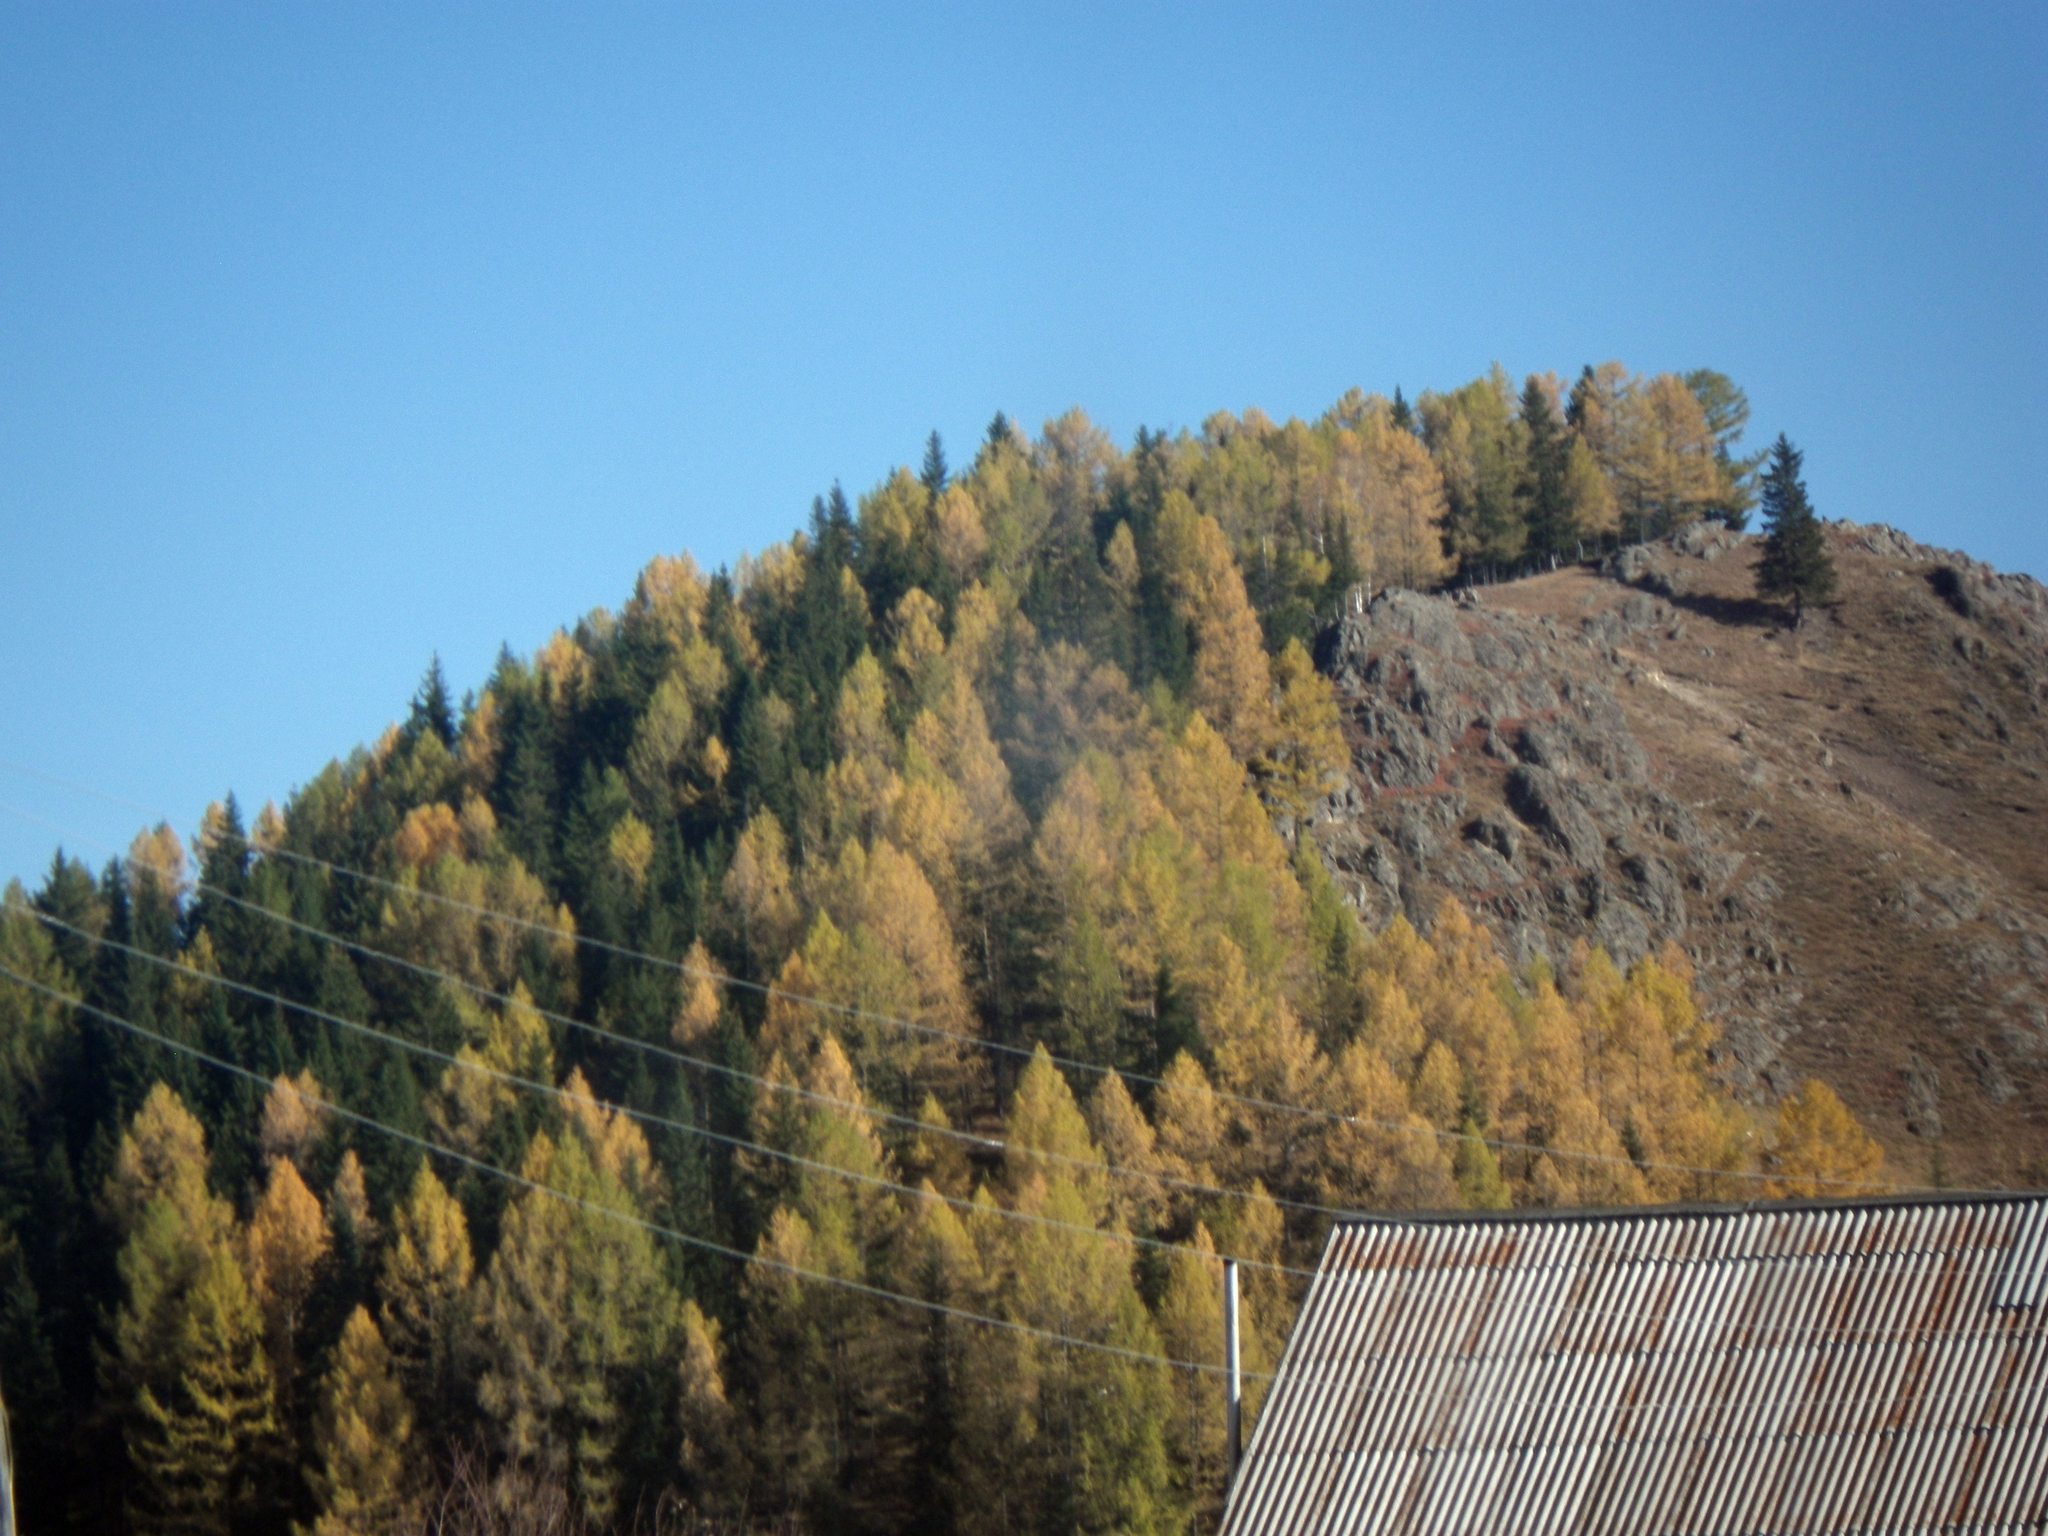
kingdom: Plantae
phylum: Tracheophyta
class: Pinopsida
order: Pinales
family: Pinaceae
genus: Larix
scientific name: Larix sibirica
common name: Siberian larch
